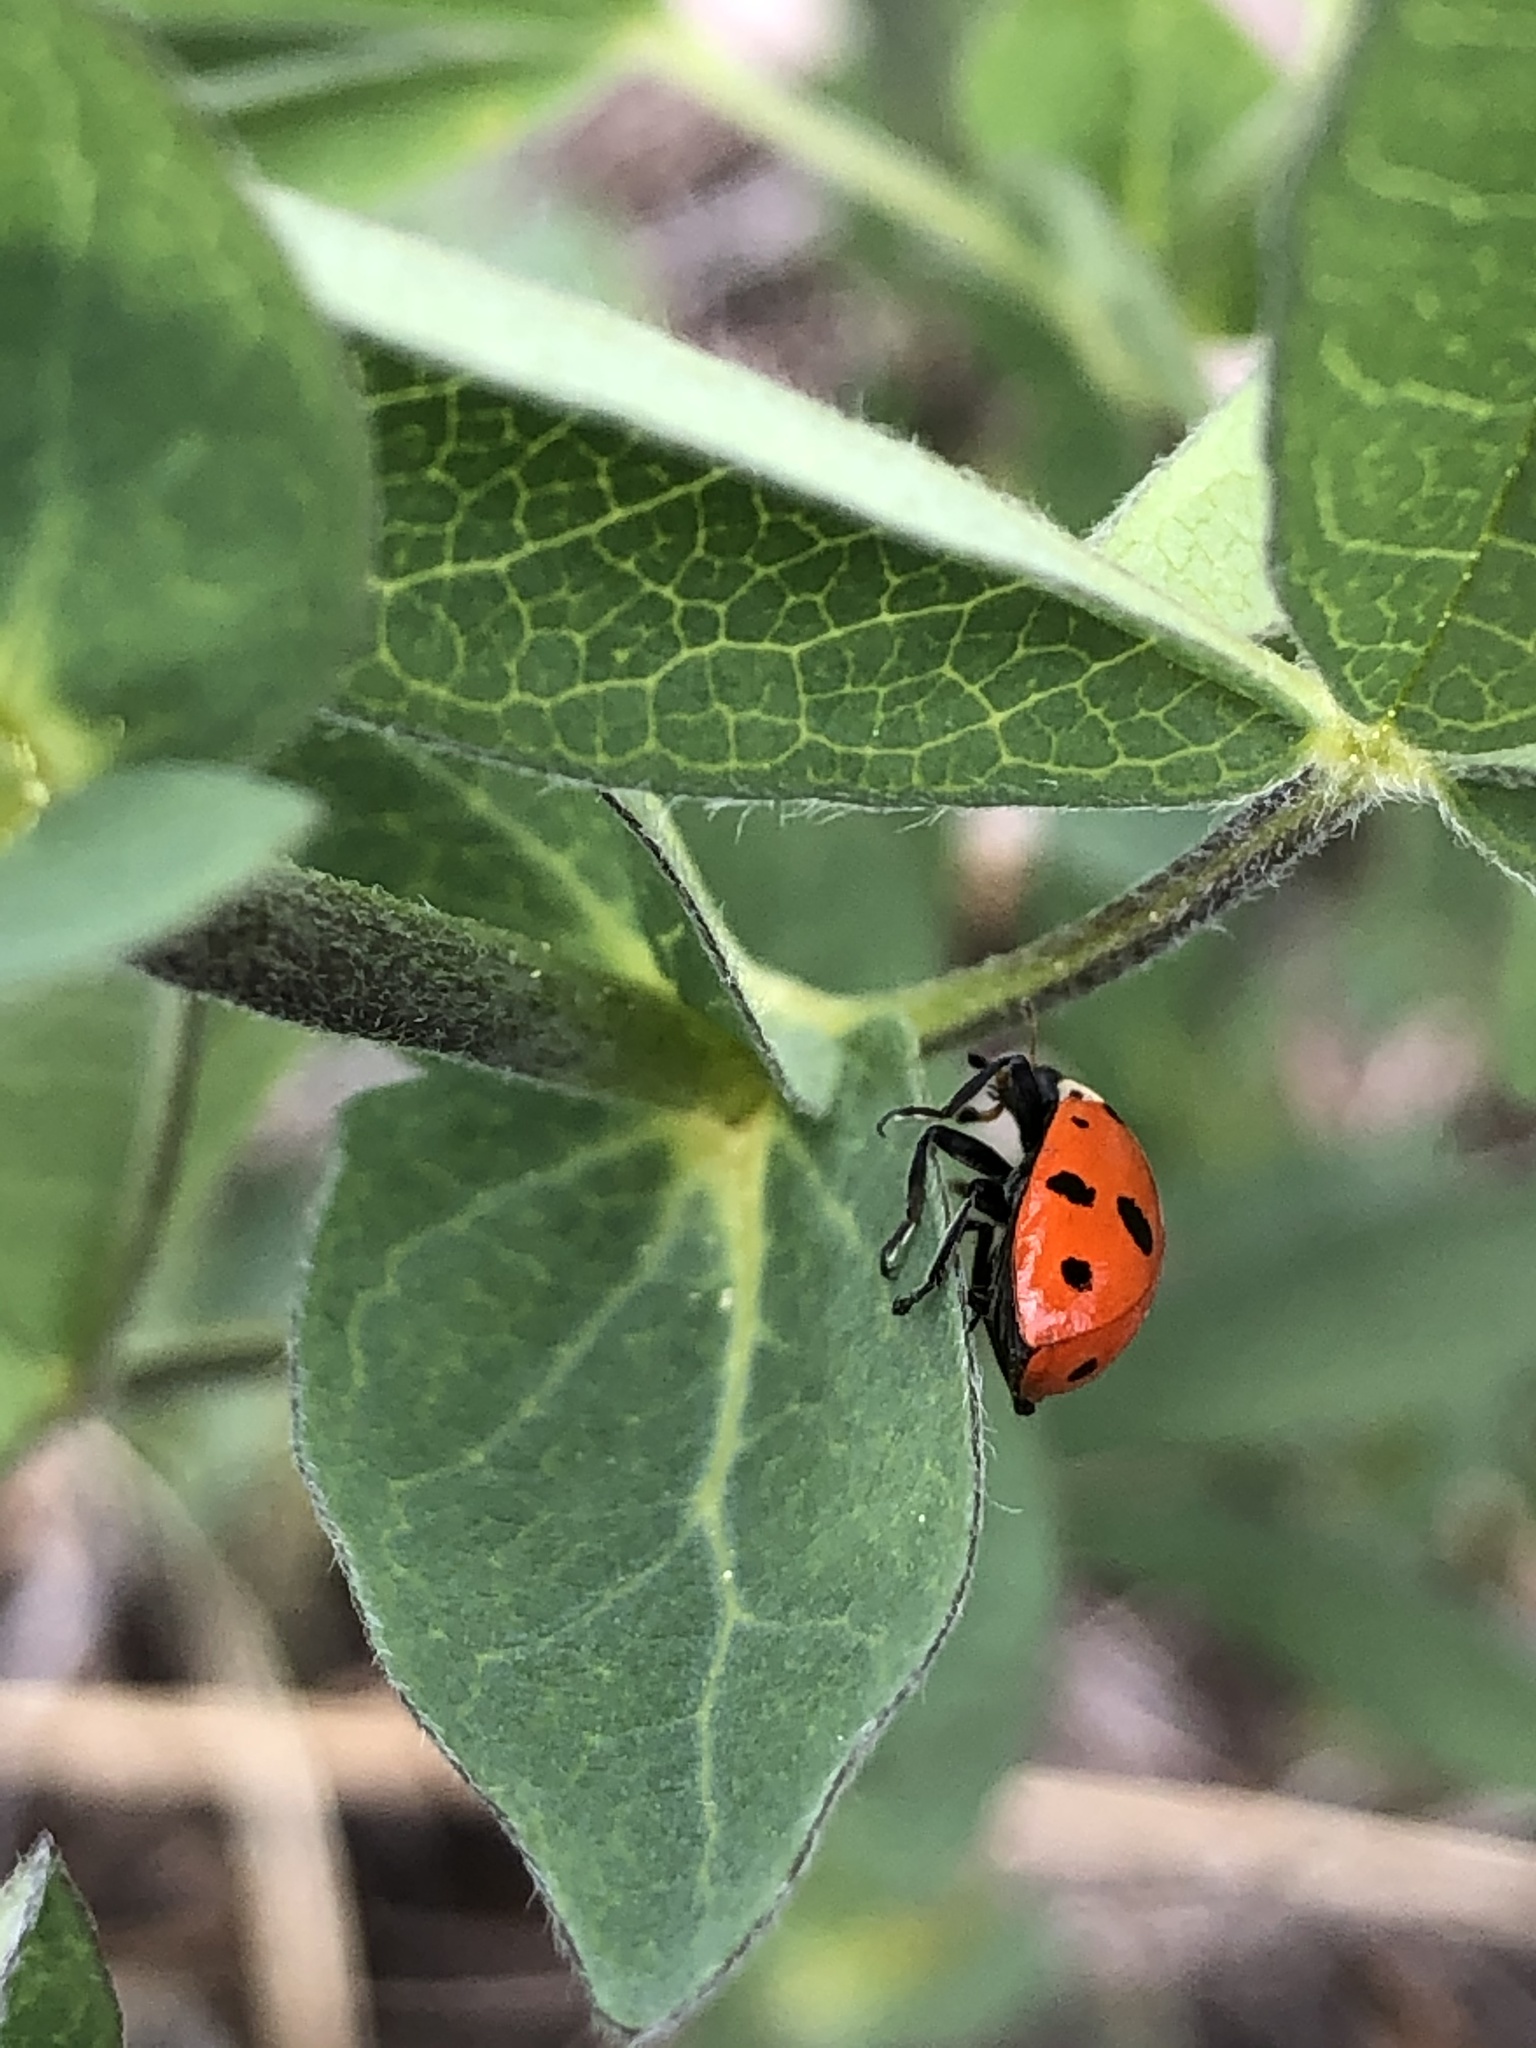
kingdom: Animalia
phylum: Arthropoda
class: Insecta
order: Coleoptera
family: Coccinellidae
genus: Hippodamia
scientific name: Hippodamia convergens
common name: Convergent lady beetle
